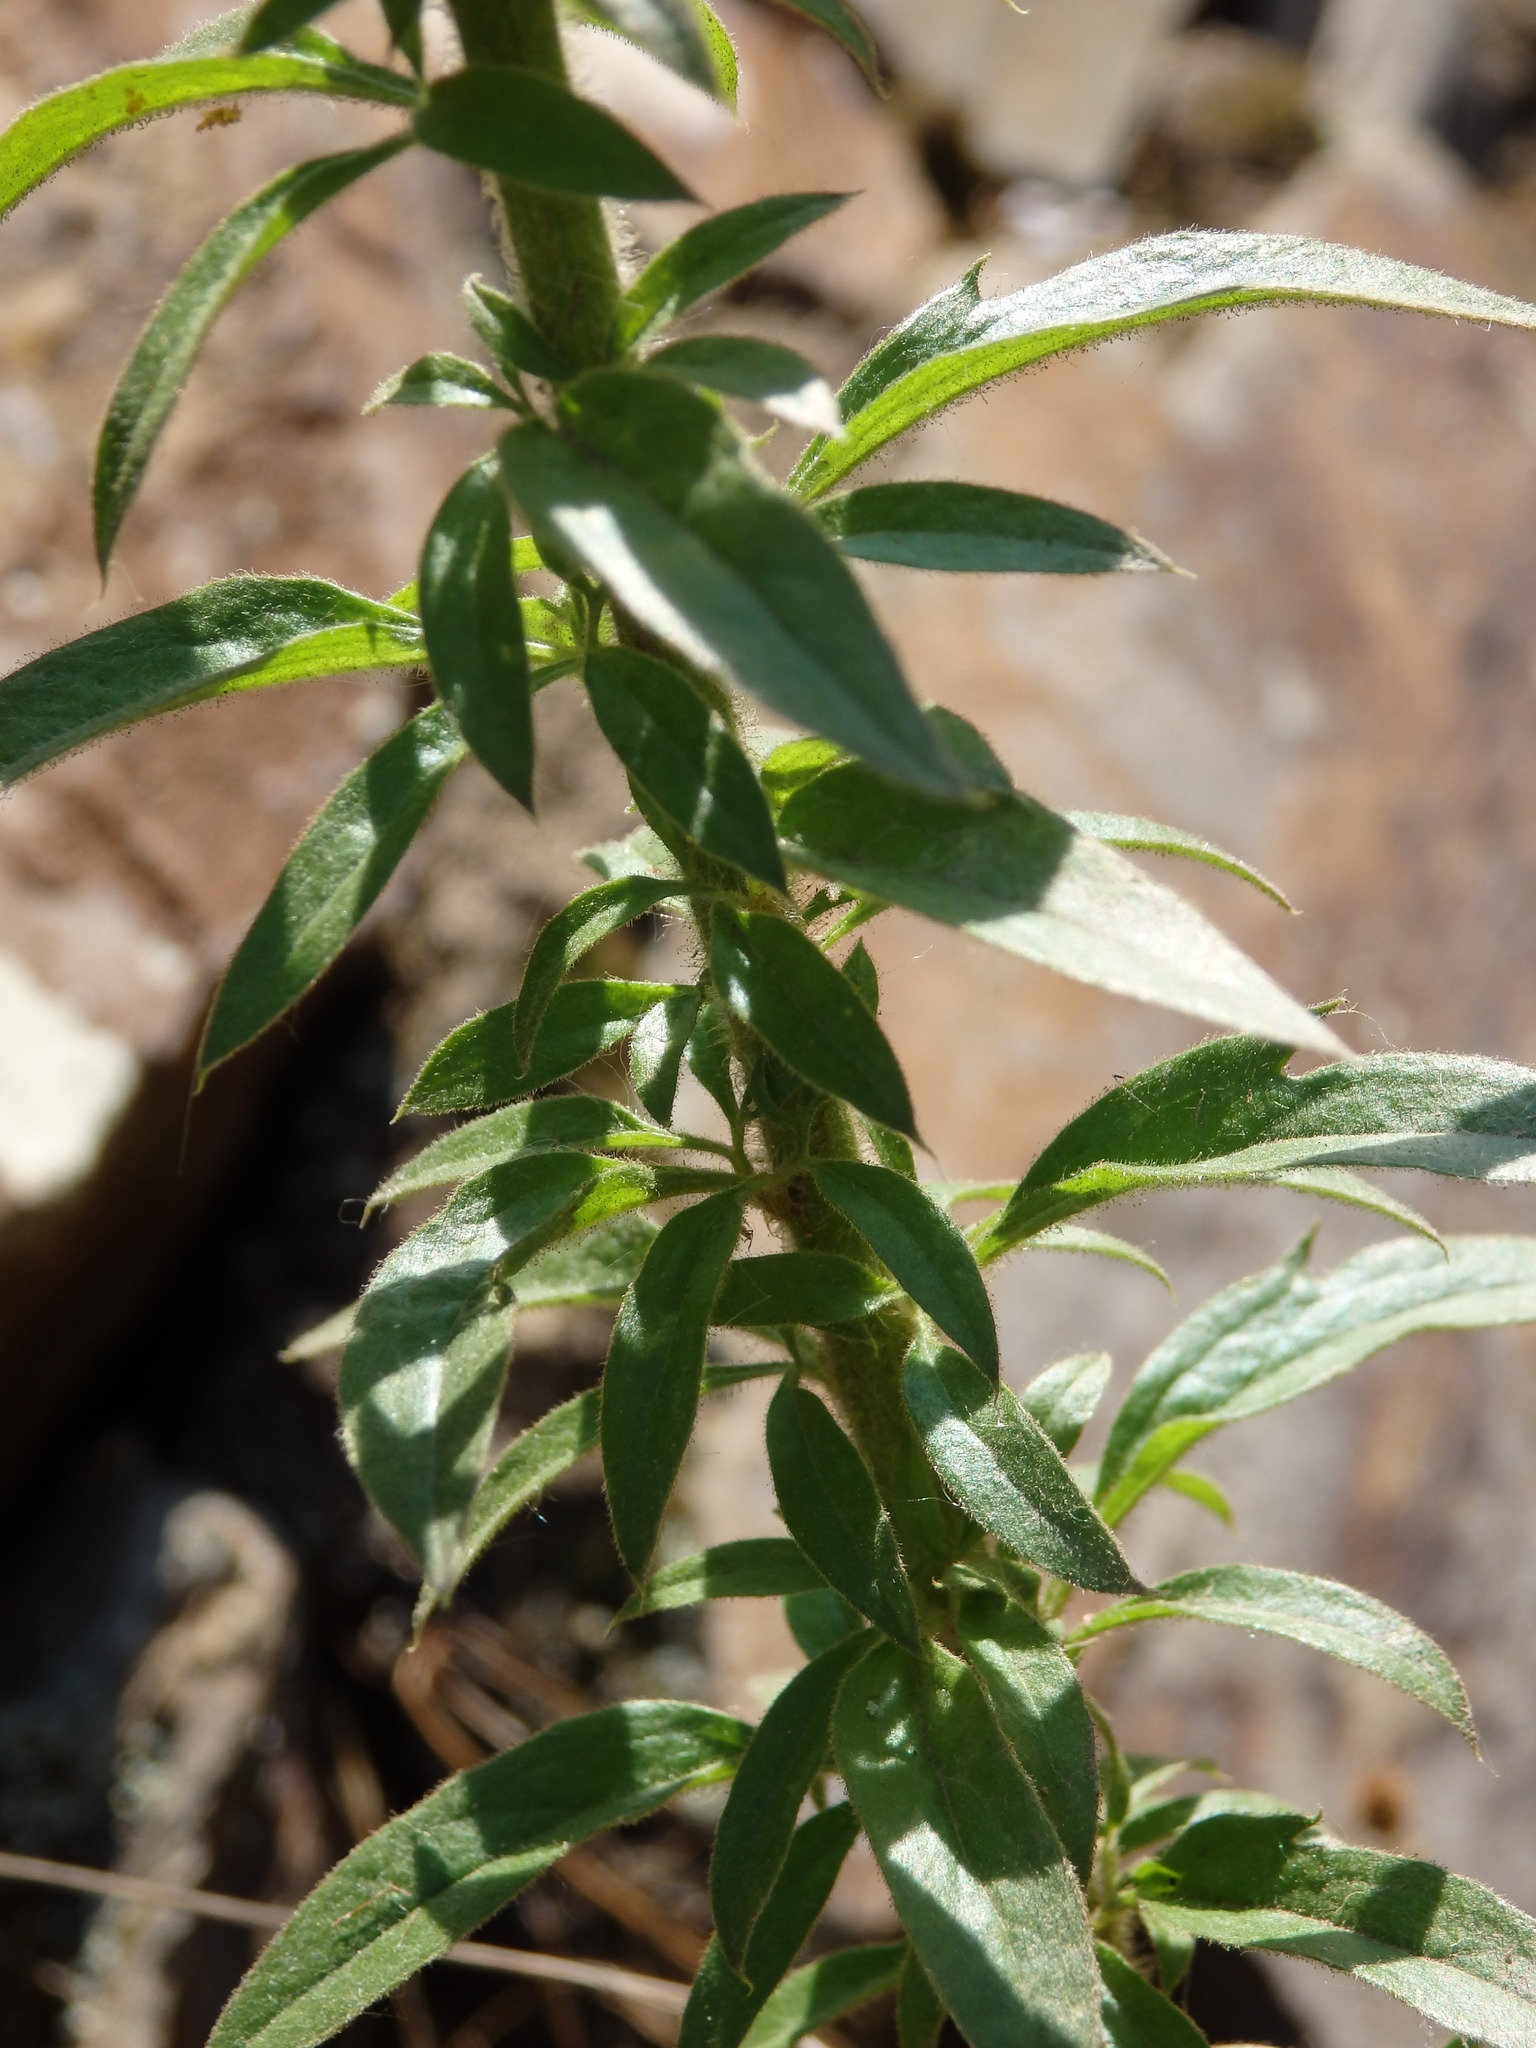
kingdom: Plantae
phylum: Tracheophyta
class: Magnoliopsida
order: Lamiales
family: Plantaginaceae
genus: Anarrhinum
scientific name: Anarrhinum bellidifolium
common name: Daisy-leaved toadflax
